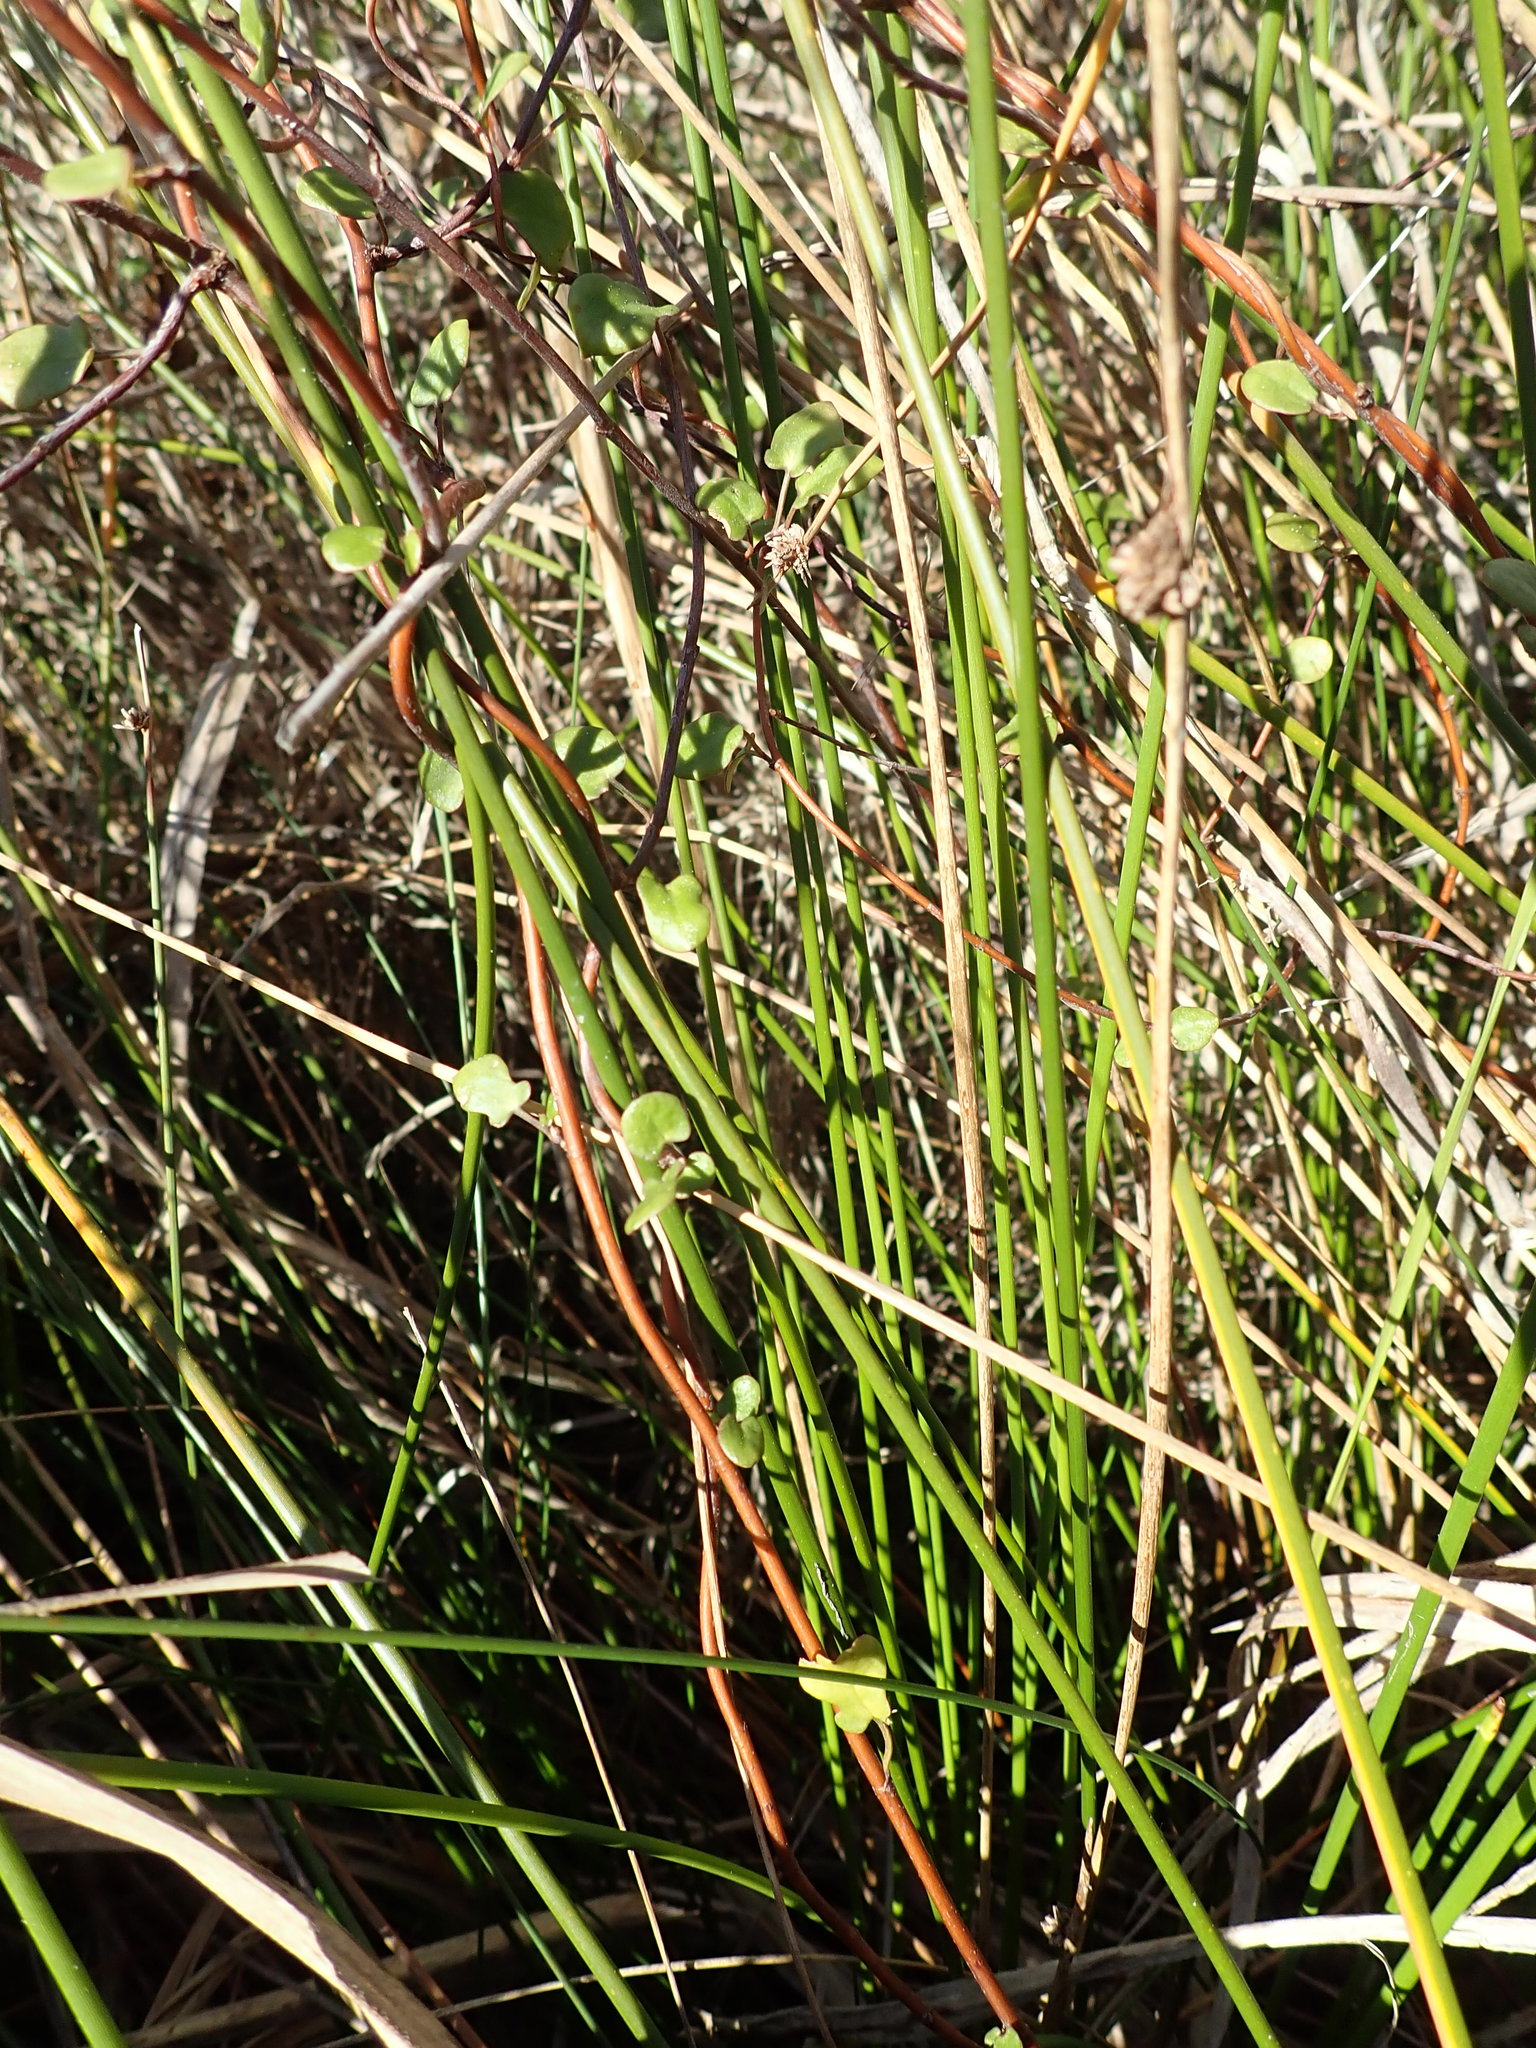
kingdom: Plantae
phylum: Tracheophyta
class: Magnoliopsida
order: Caryophyllales
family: Polygonaceae
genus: Muehlenbeckia
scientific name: Muehlenbeckia complexa
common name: Wireplant
